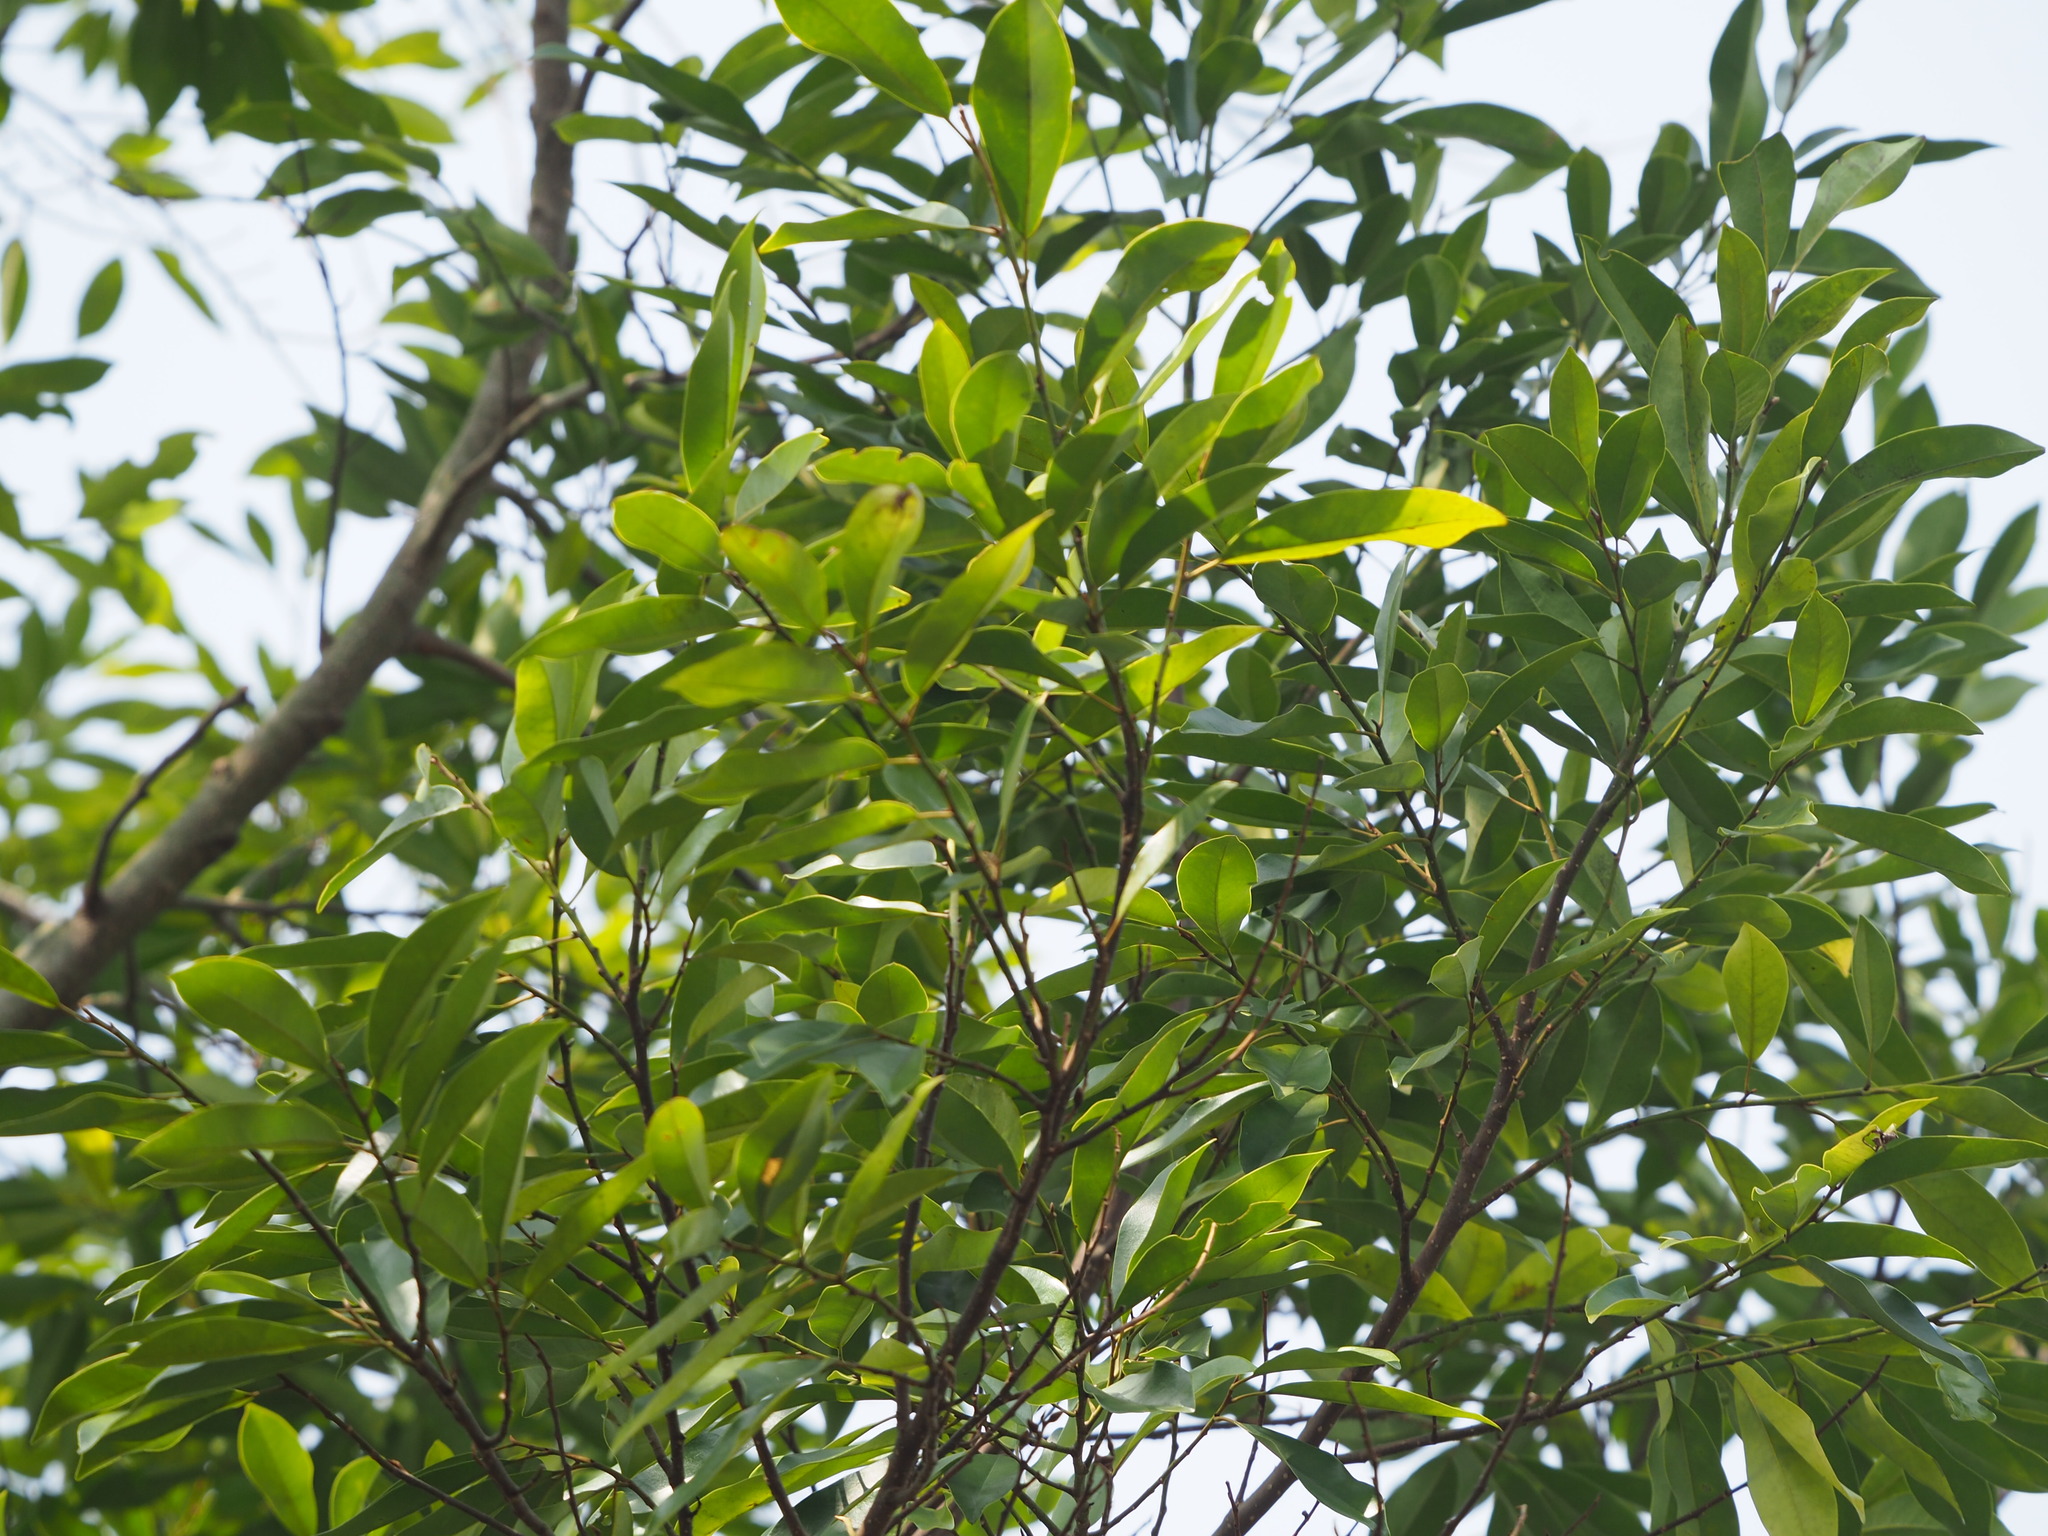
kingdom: Plantae
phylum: Tracheophyta
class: Magnoliopsida
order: Magnoliales
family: Magnoliaceae
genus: Magnolia
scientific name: Magnolia compressa
